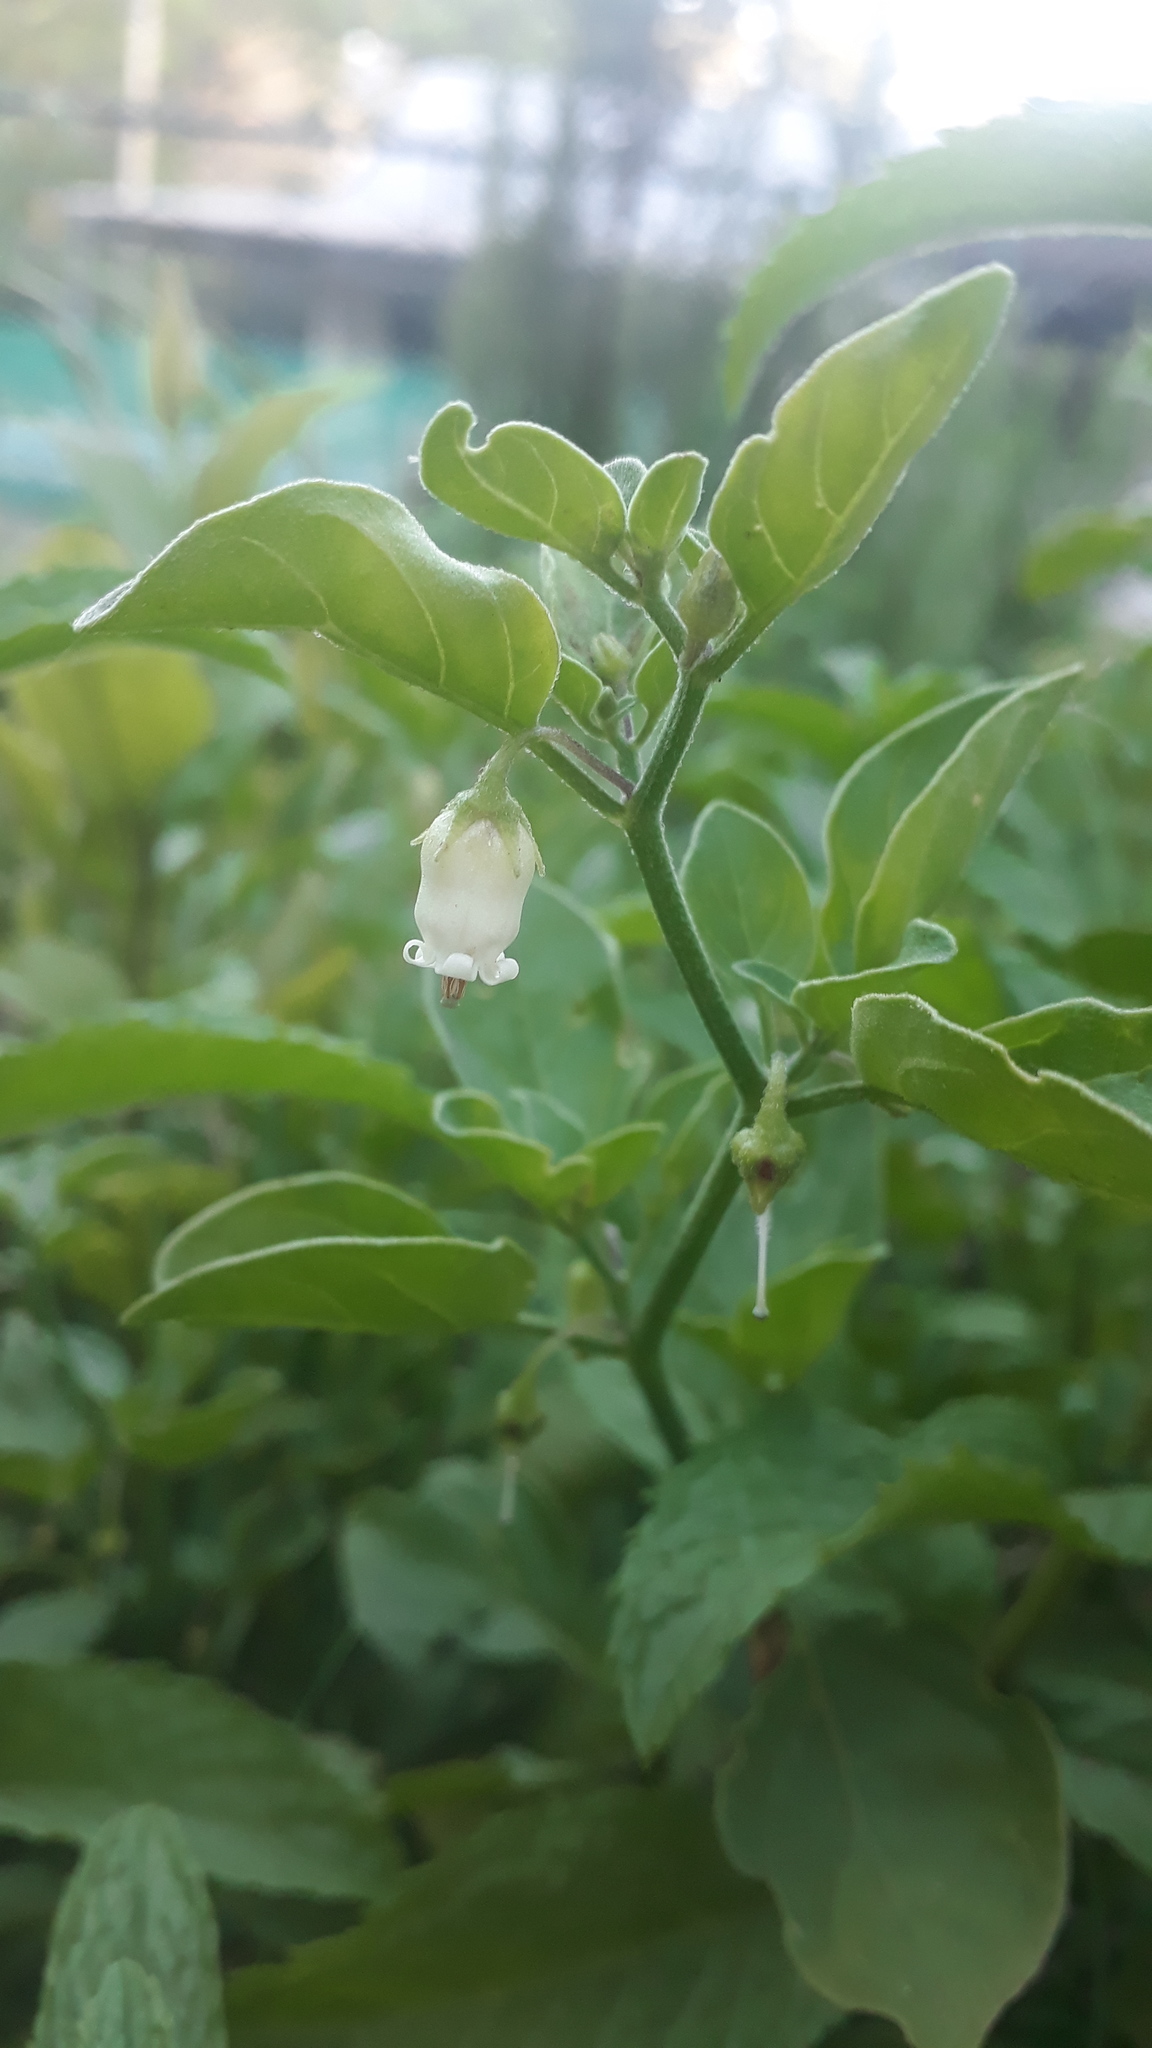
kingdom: Plantae
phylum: Tracheophyta
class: Magnoliopsida
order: Solanales
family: Solanaceae
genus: Salpichroa
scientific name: Salpichroa origanifolia
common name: Lily-of-the-valley-vine
